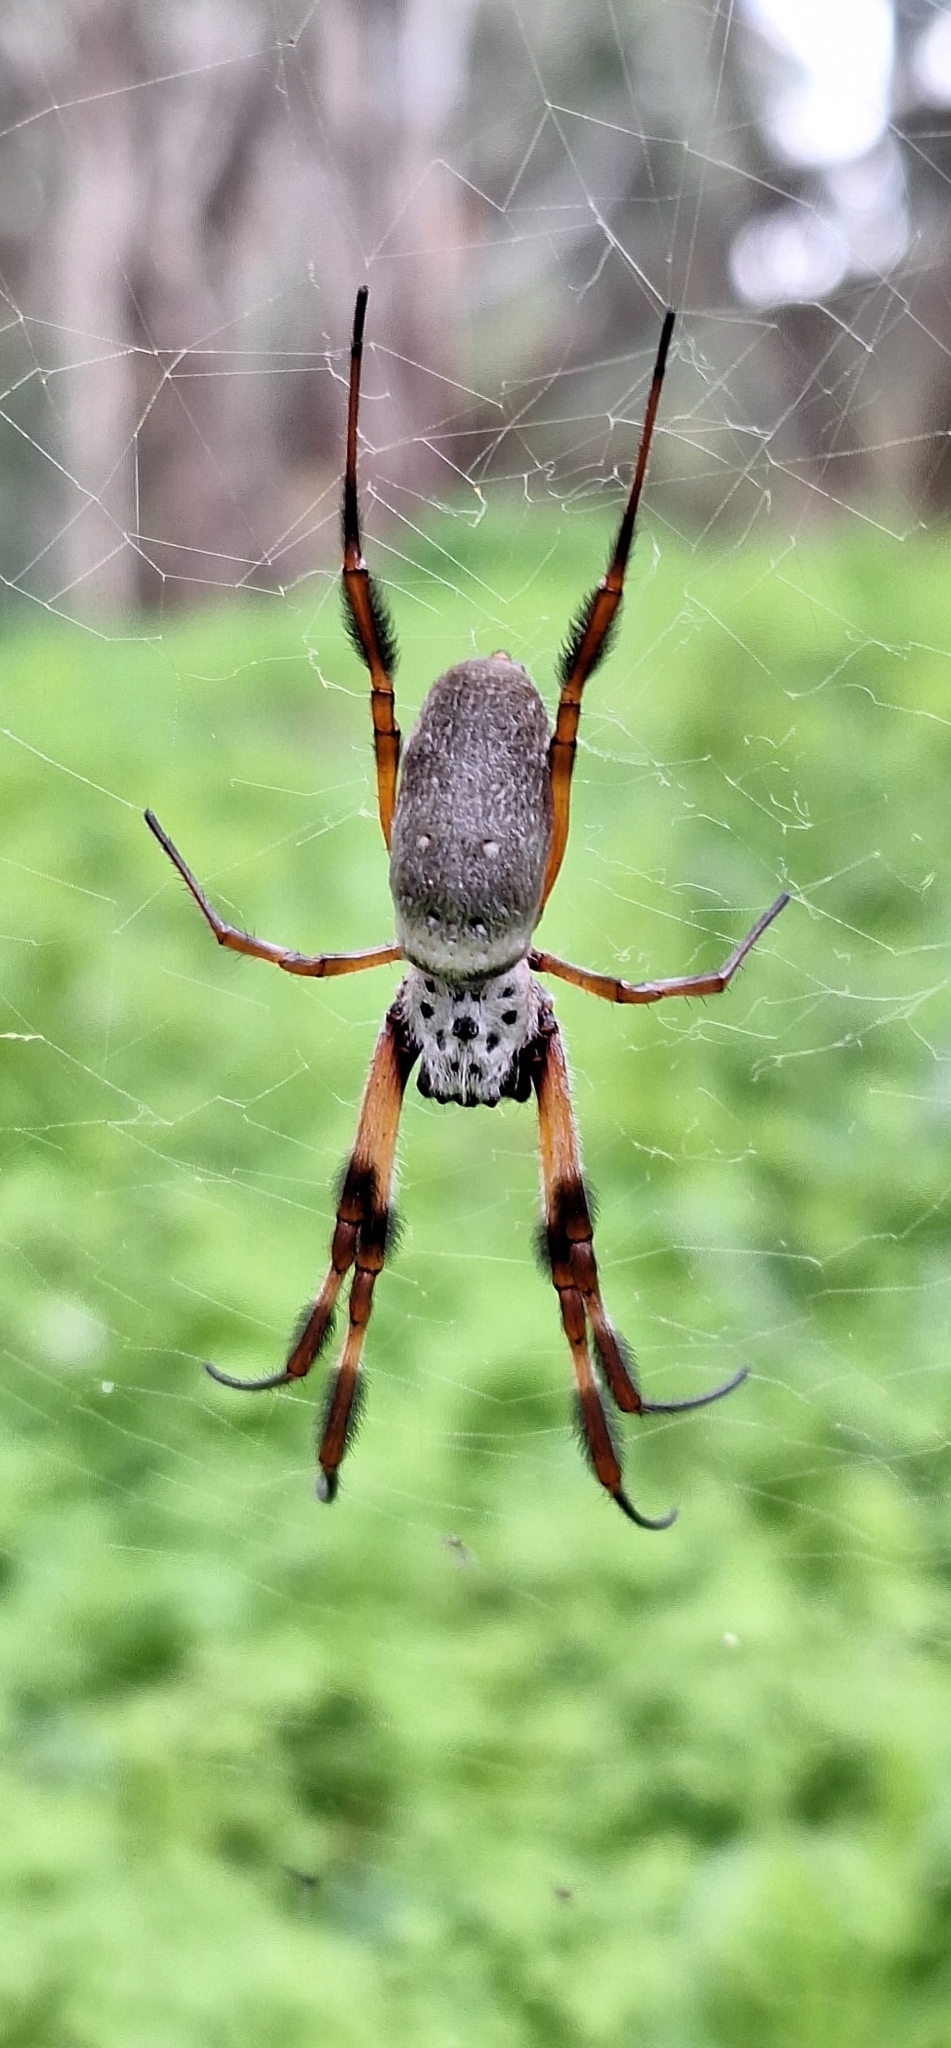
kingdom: Animalia
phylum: Arthropoda
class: Arachnida
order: Araneae
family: Araneidae
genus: Trichonephila
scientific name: Trichonephila edulis
